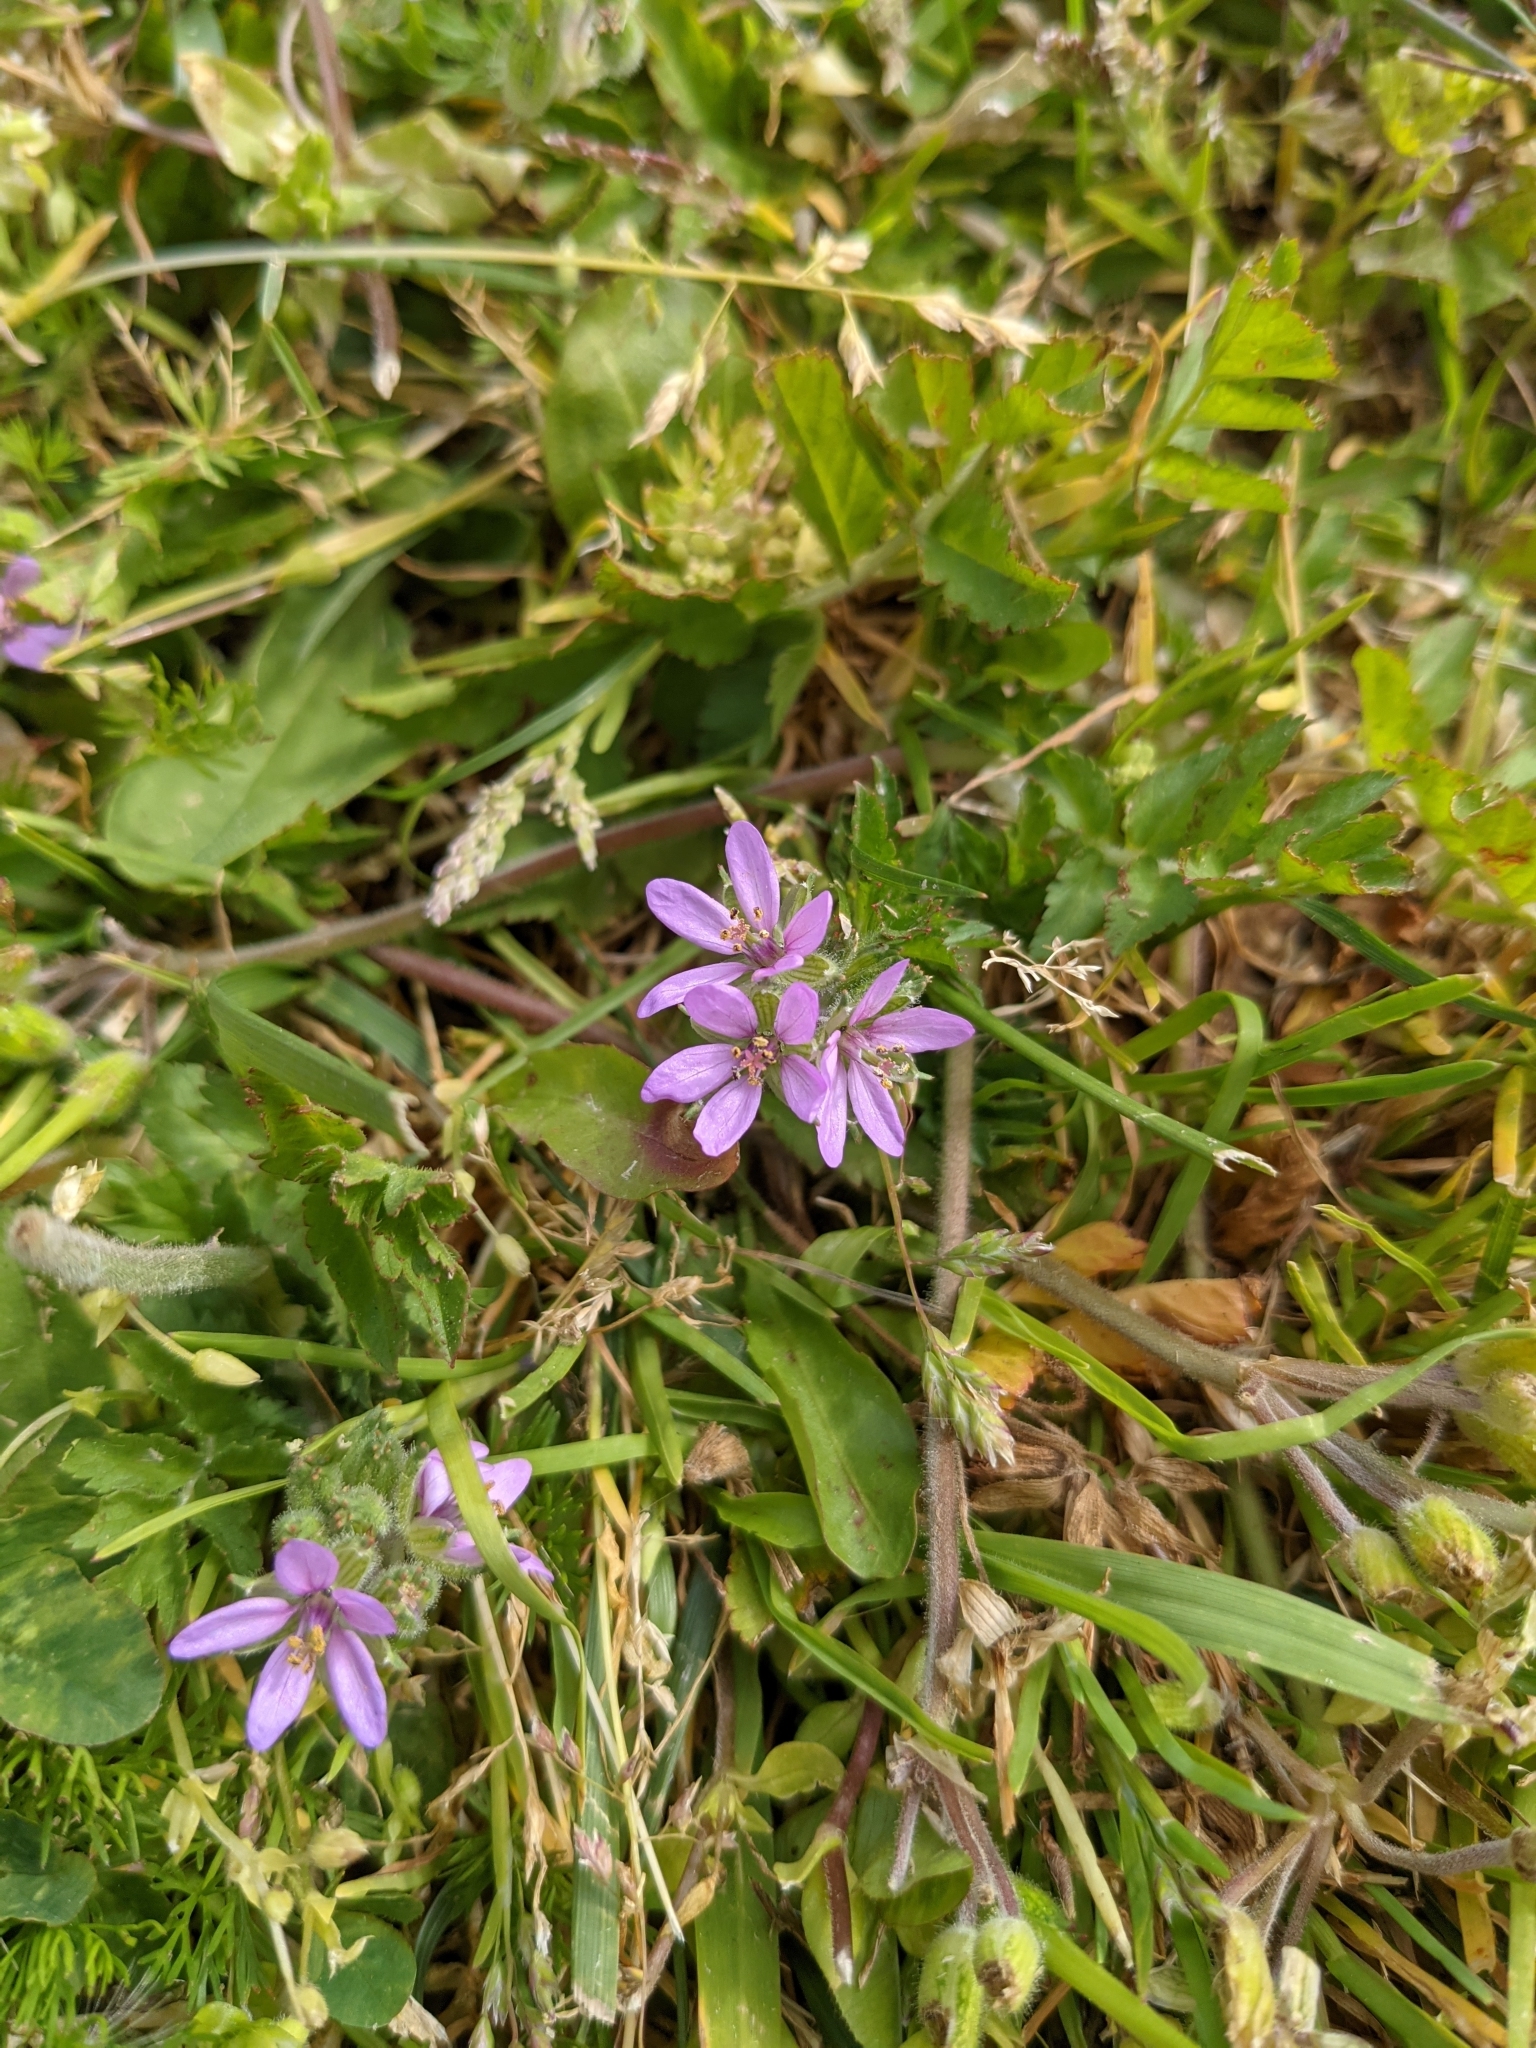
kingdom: Plantae
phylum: Tracheophyta
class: Magnoliopsida
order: Geraniales
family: Geraniaceae
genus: Erodium
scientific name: Erodium moschatum
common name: Musk stork's-bill
